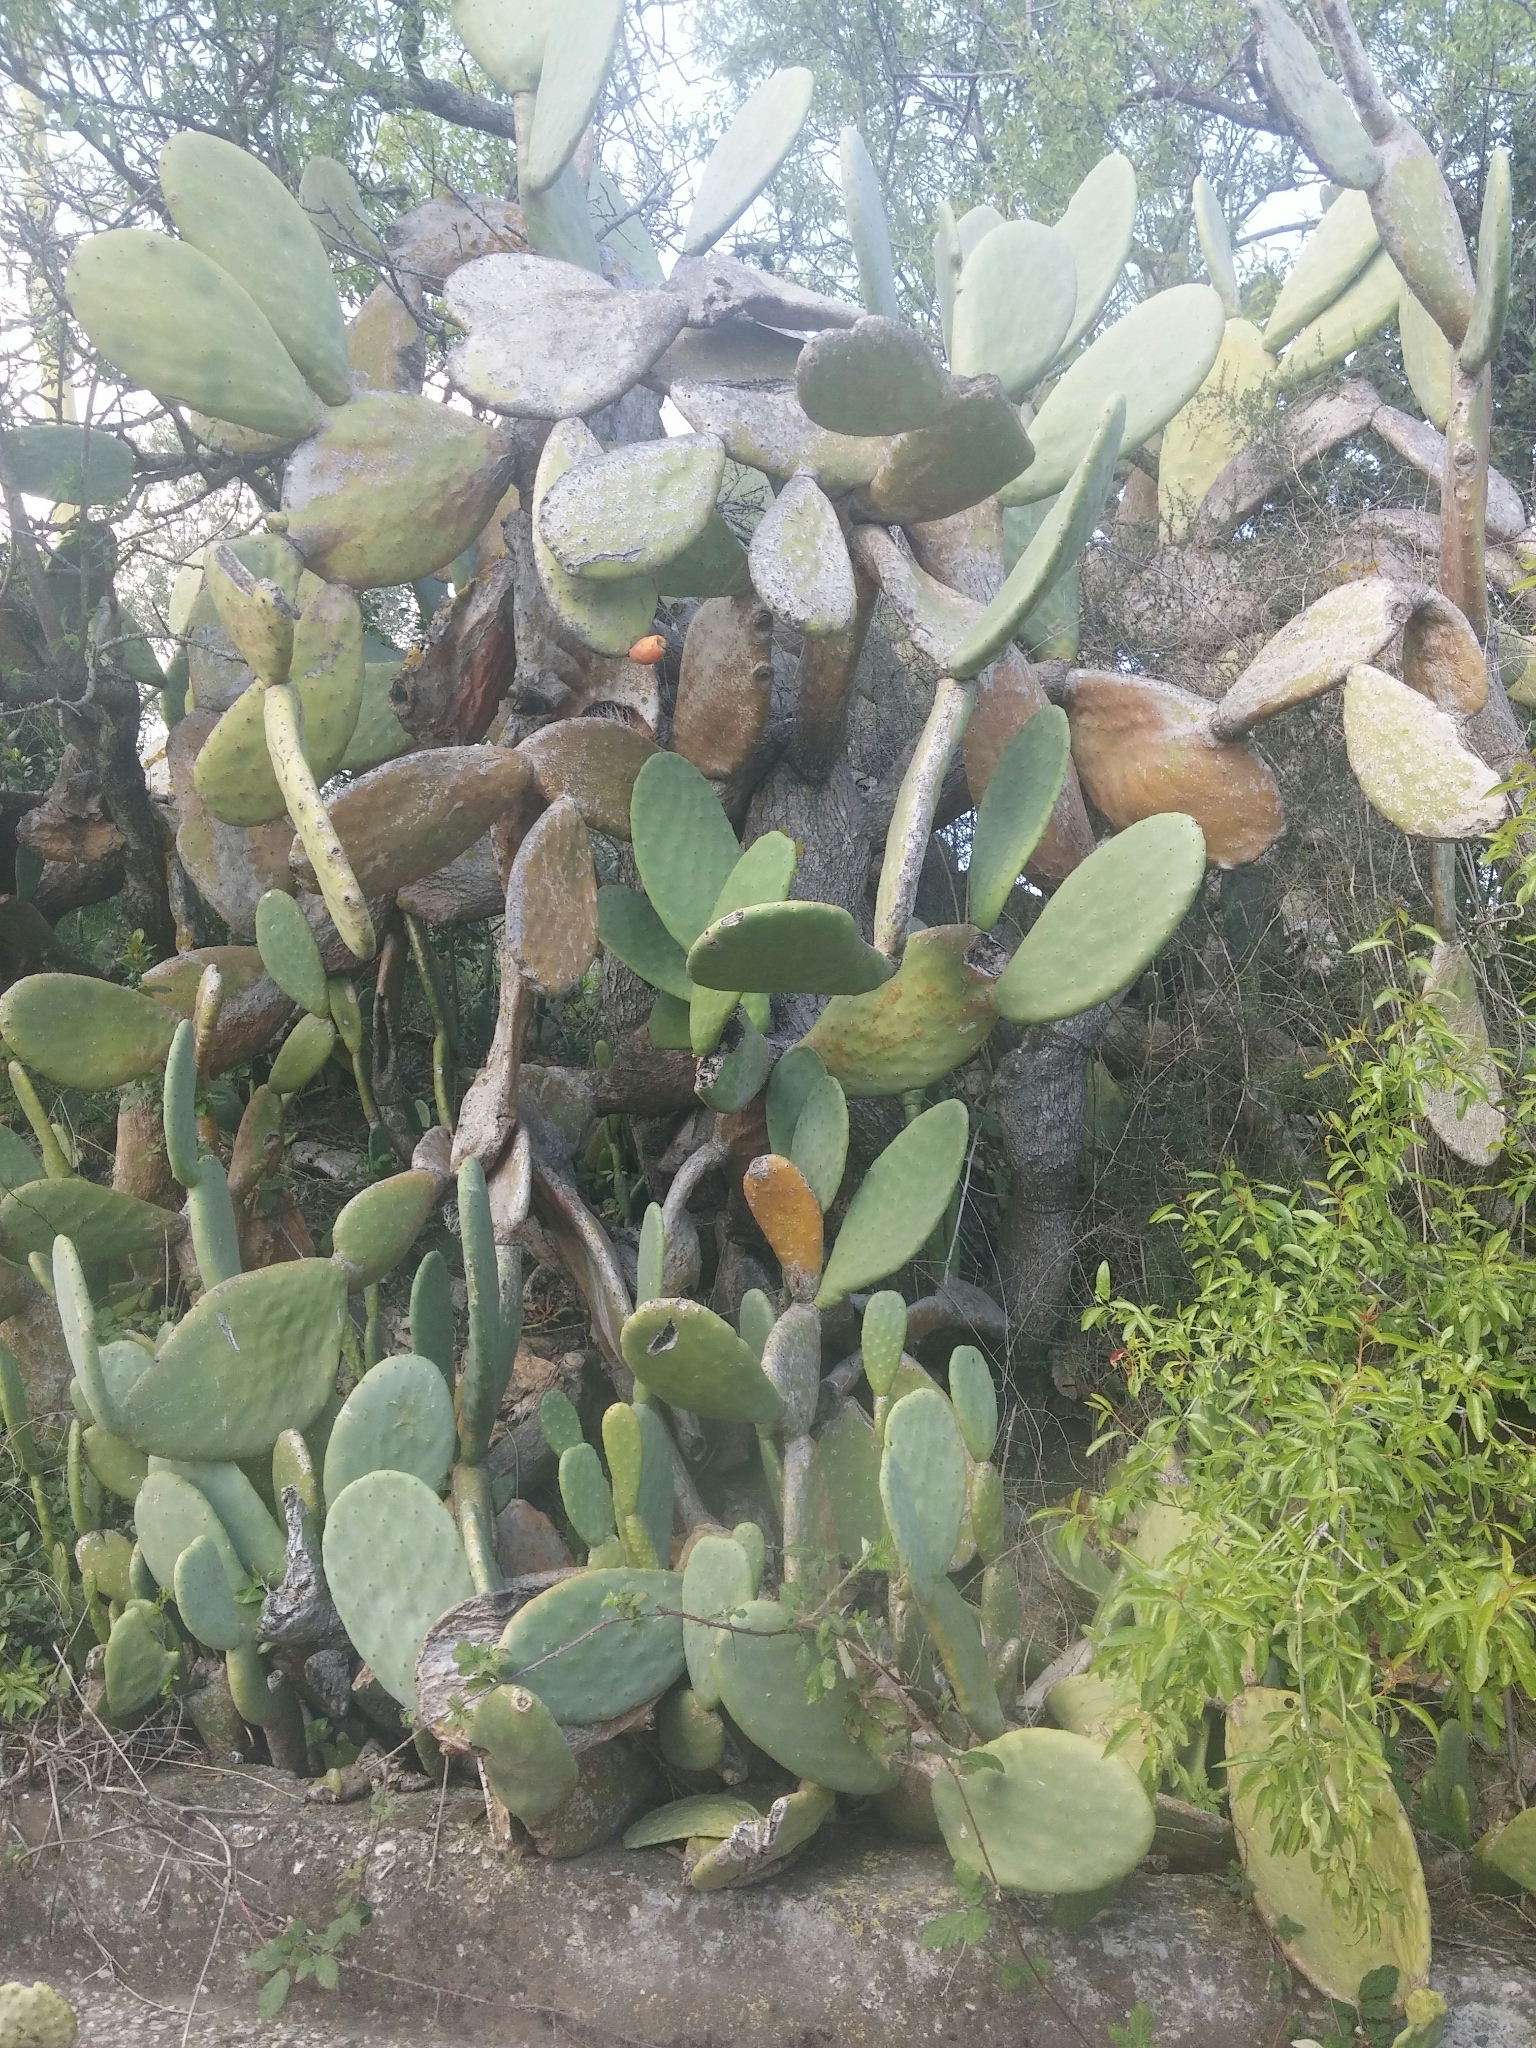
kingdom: Plantae
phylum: Tracheophyta
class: Magnoliopsida
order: Caryophyllales
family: Cactaceae
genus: Opuntia
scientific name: Opuntia ficus-indica
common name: Barbary fig
